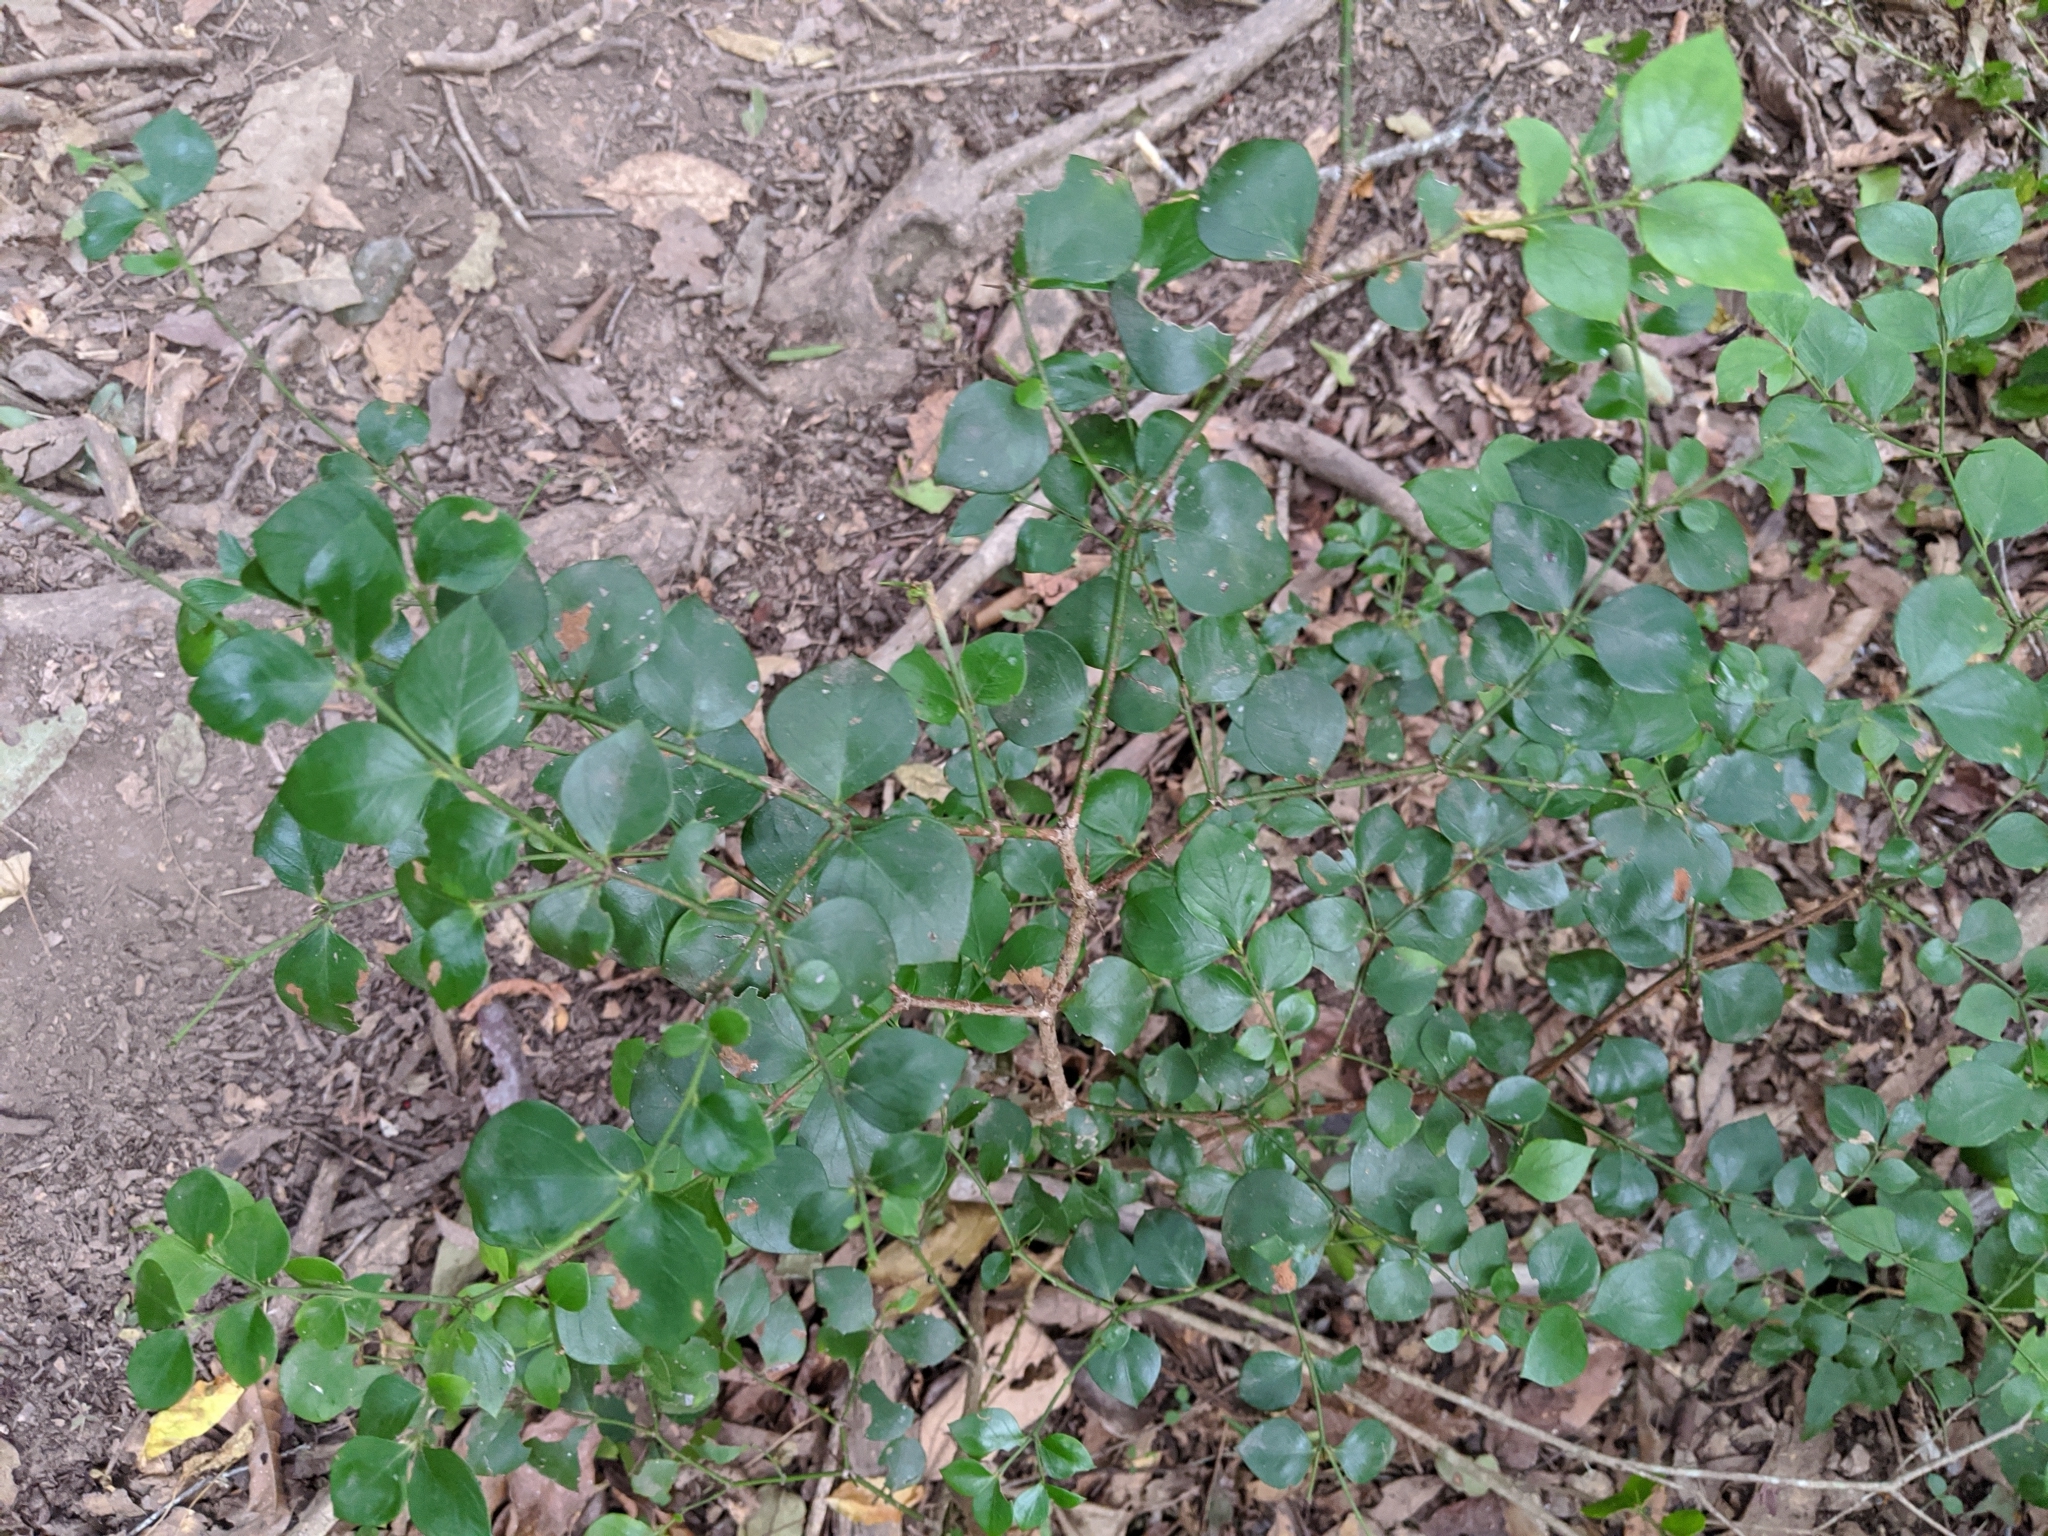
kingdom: Plantae
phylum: Tracheophyta
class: Magnoliopsida
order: Gentianales
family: Apocynaceae
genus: Carissa
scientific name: Carissa ovata
